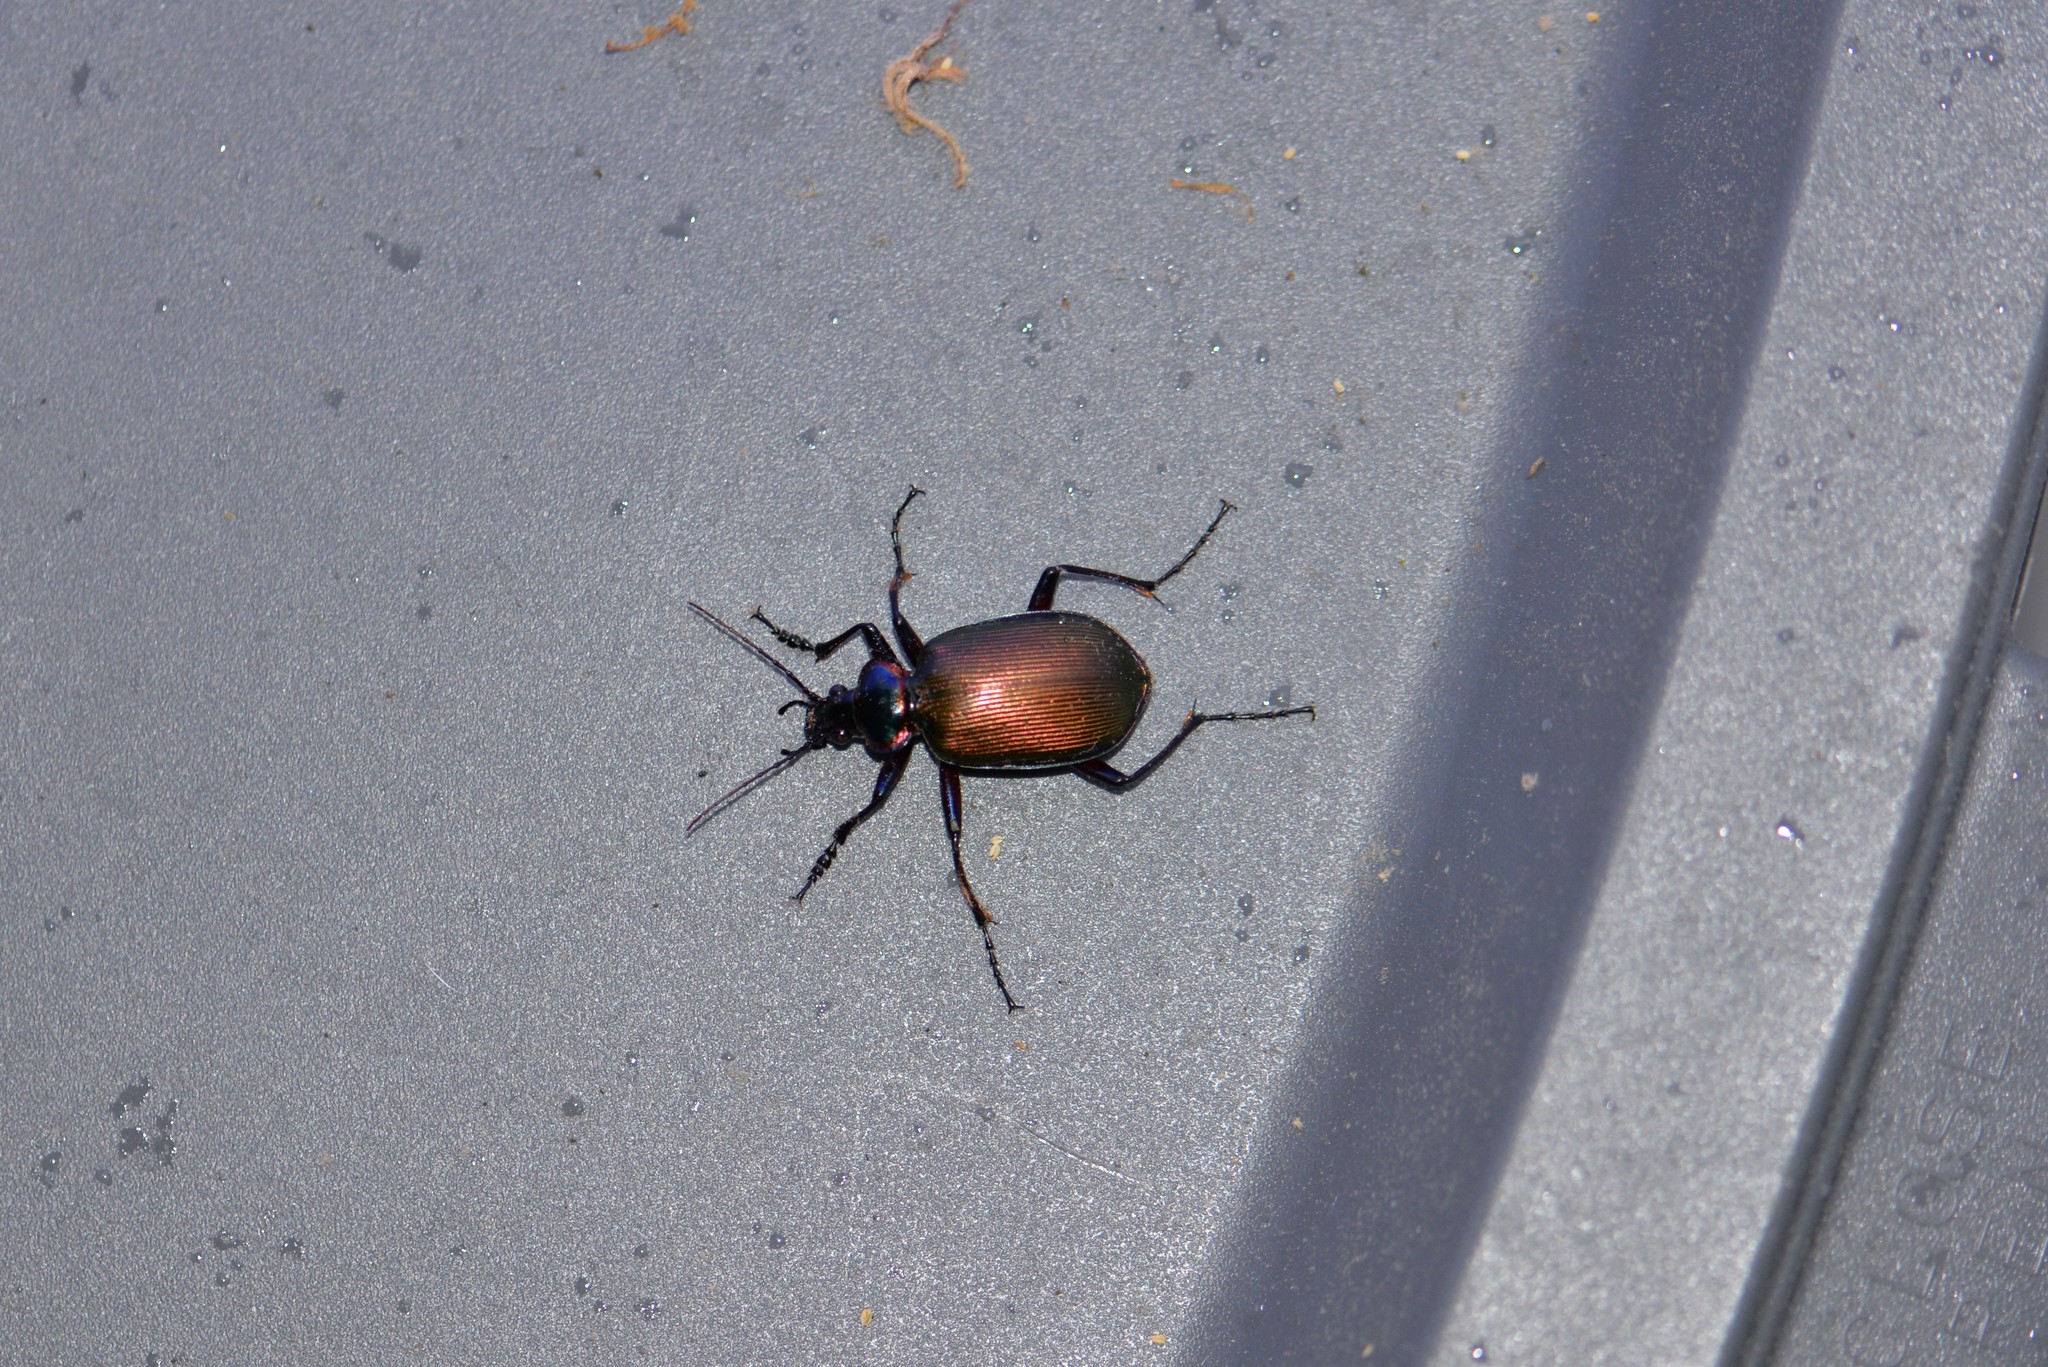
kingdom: Animalia
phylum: Arthropoda
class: Insecta
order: Coleoptera
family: Carabidae
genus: Calosoma
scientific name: Calosoma scrutator
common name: Fiery searcher beetle
